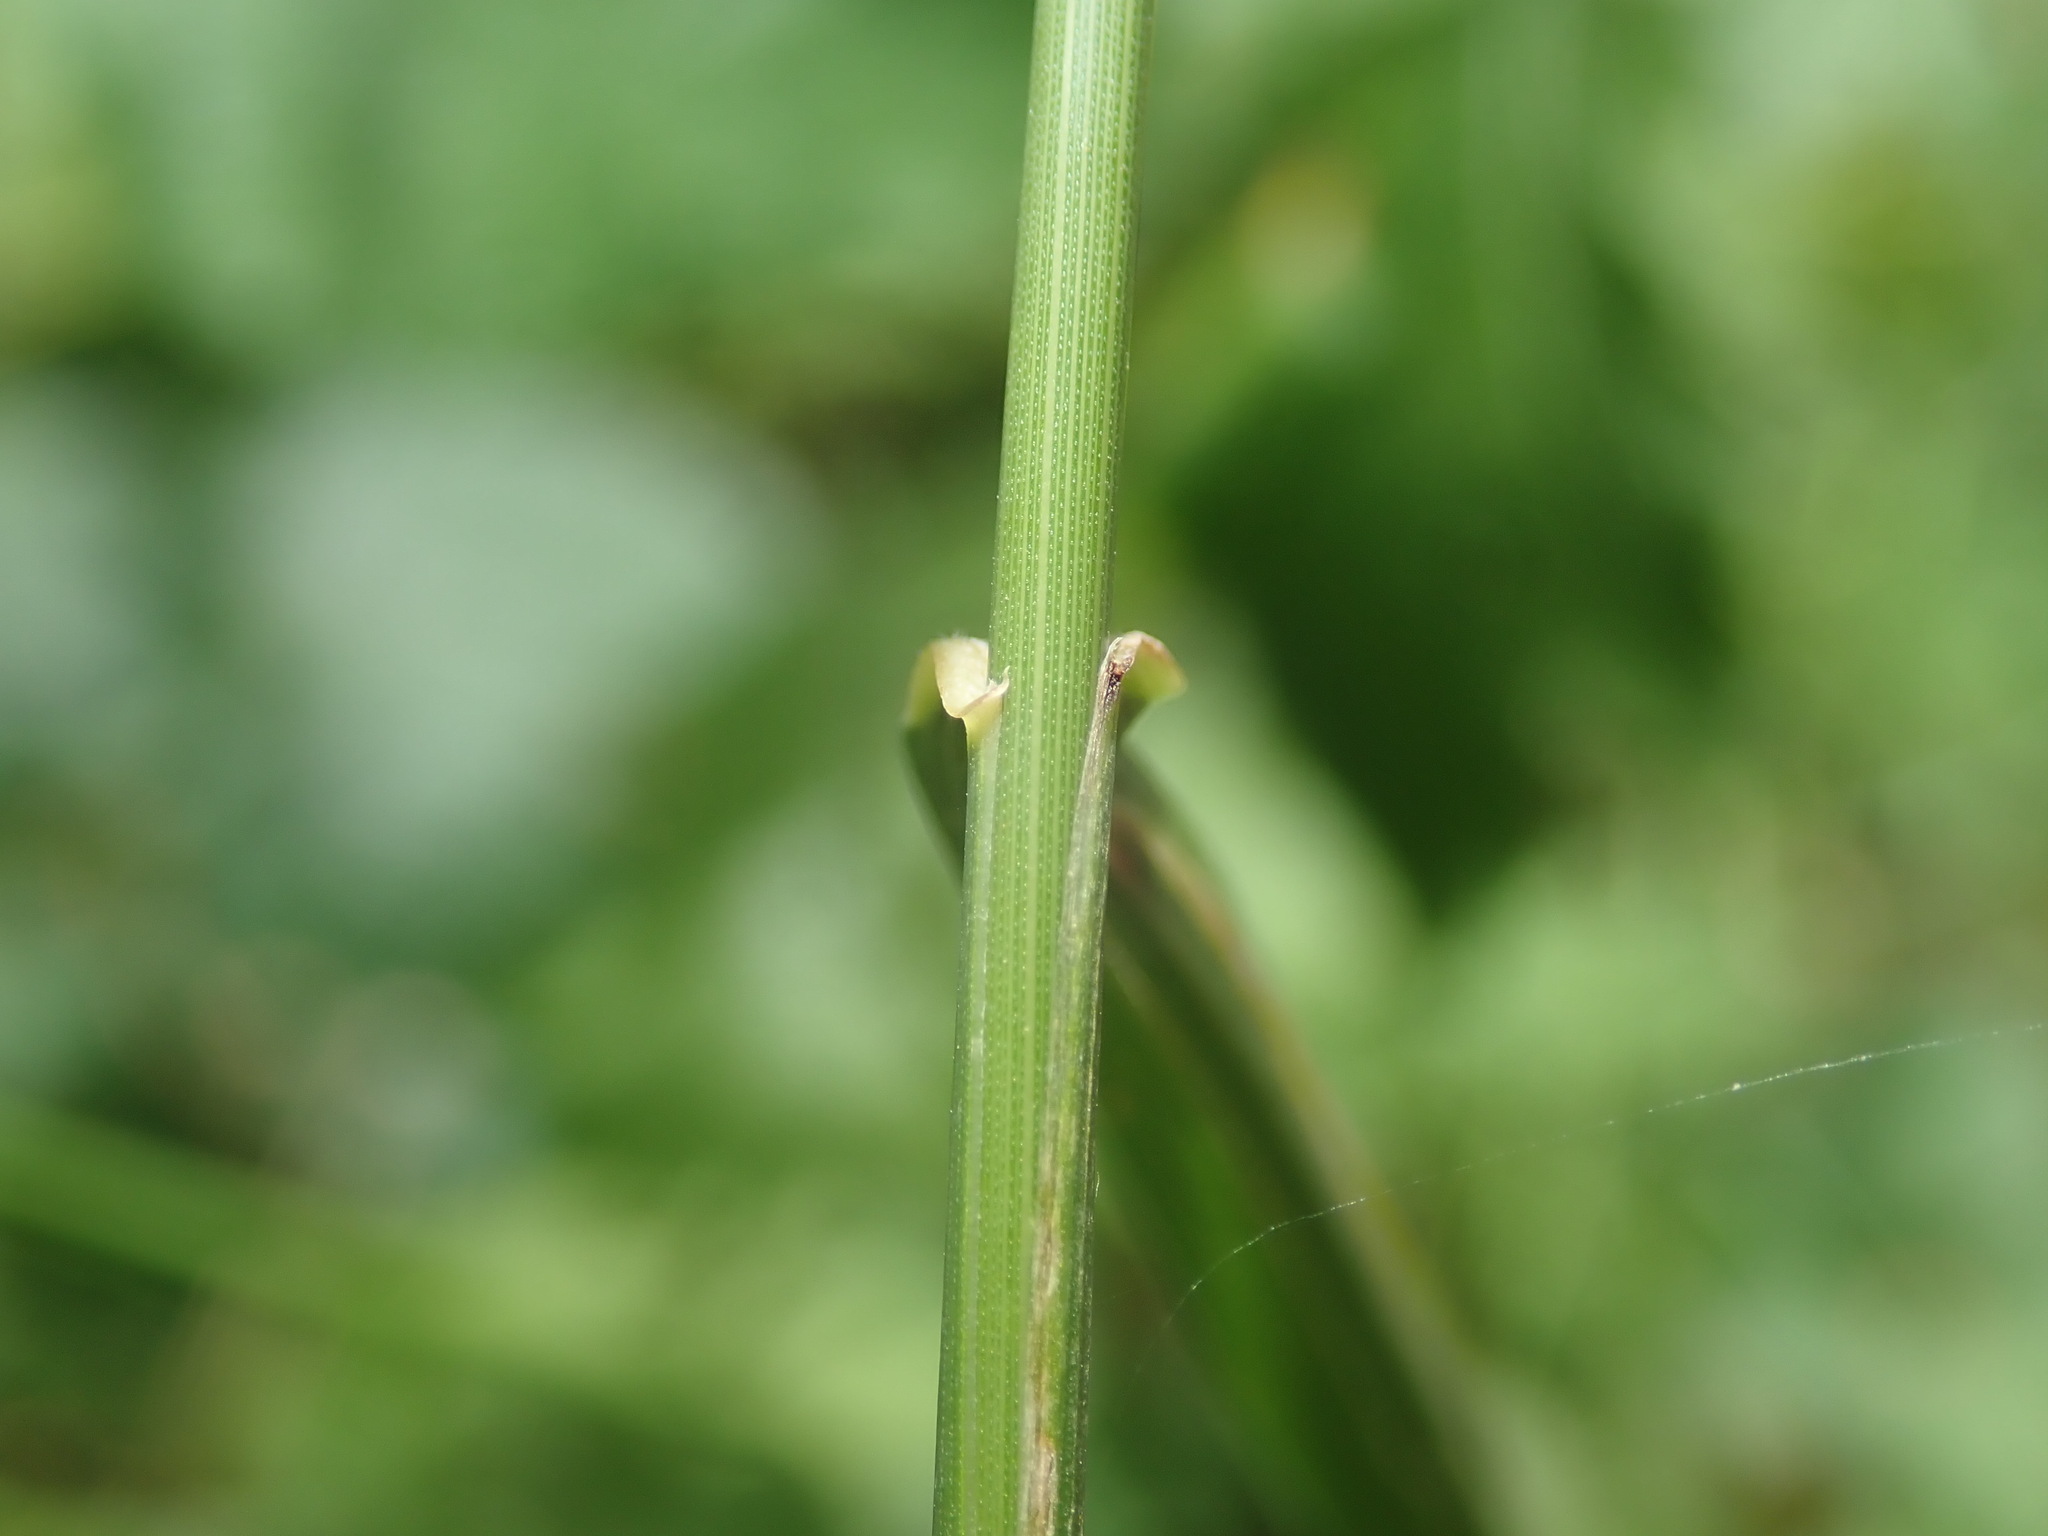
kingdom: Plantae
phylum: Tracheophyta
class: Liliopsida
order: Poales
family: Poaceae
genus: Elymus
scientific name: Elymus repens
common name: Quackgrass
